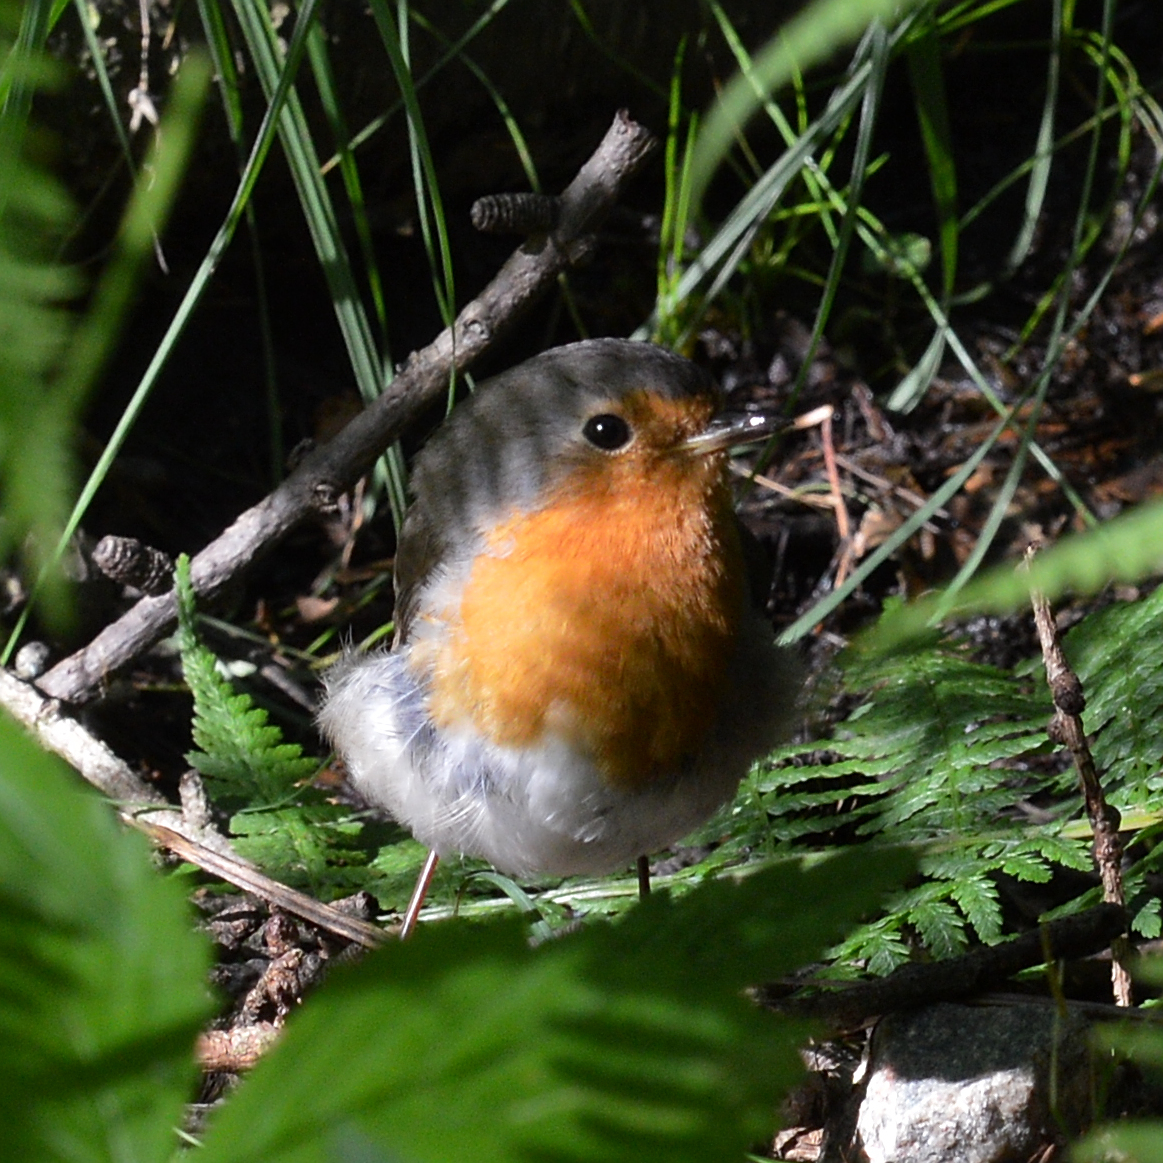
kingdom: Animalia
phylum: Chordata
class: Aves
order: Passeriformes
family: Muscicapidae
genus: Erithacus
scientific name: Erithacus rubecula
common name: European robin
